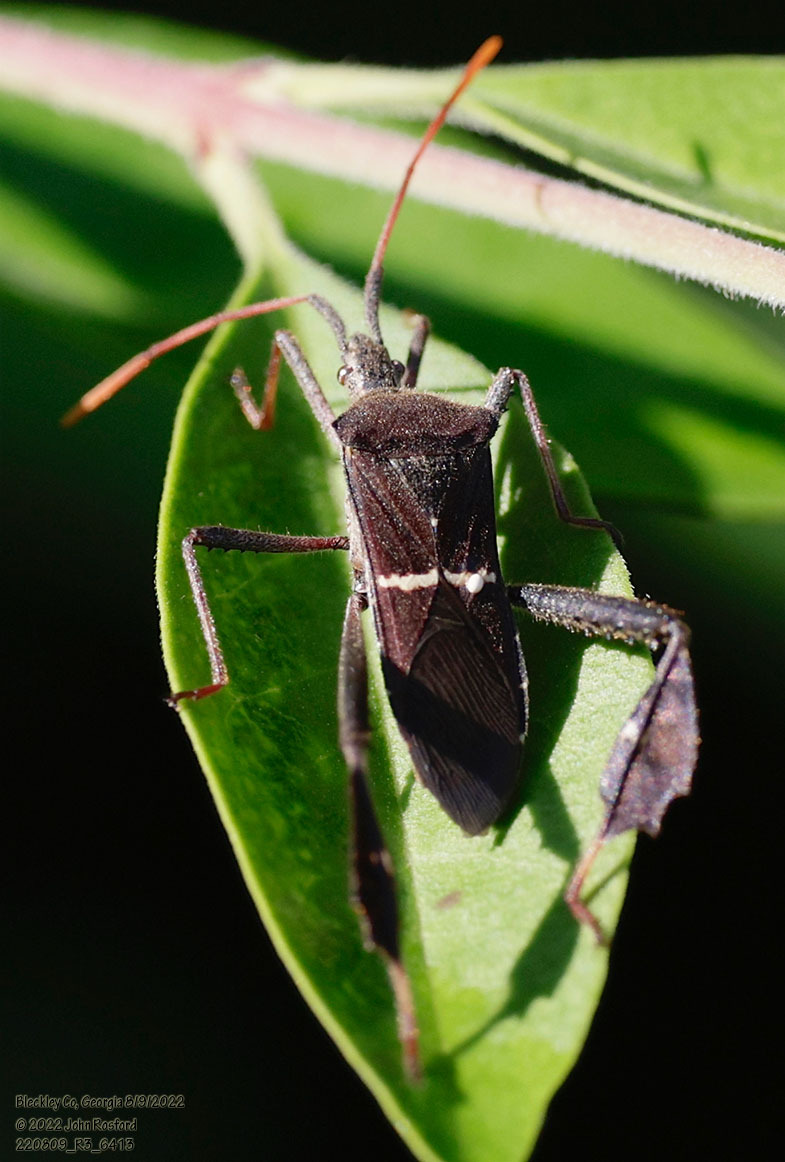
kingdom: Animalia
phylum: Arthropoda
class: Insecta
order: Hemiptera
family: Coreidae
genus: Leptoglossus
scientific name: Leptoglossus phyllopus
